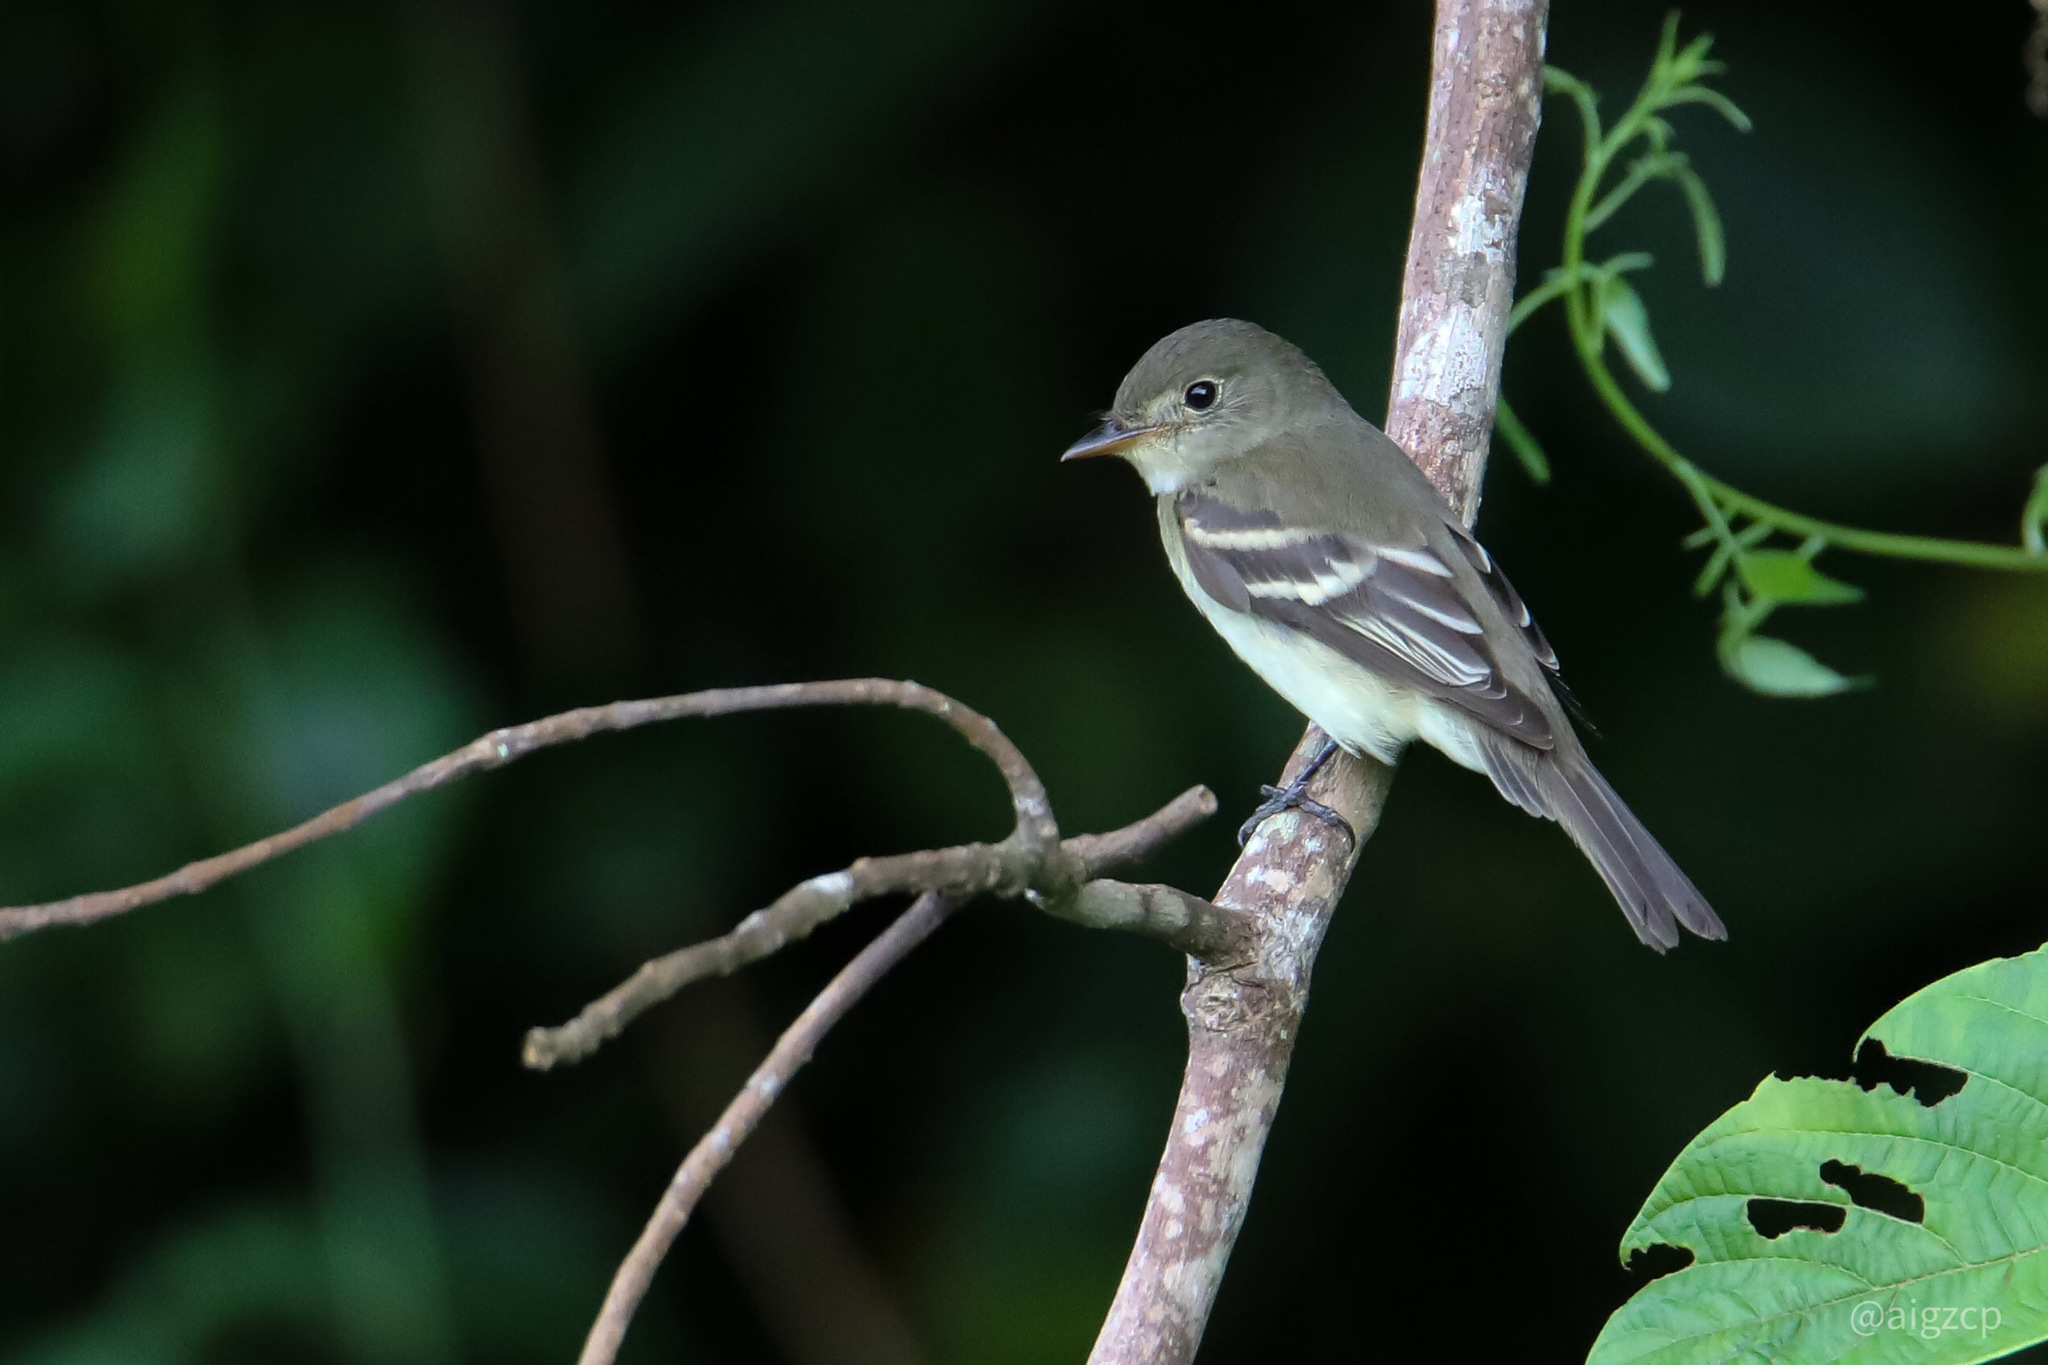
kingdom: Animalia
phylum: Chordata
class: Aves
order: Passeriformes
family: Tyrannidae
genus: Empidonax
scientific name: Empidonax virescens
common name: Acadian flycatcher
